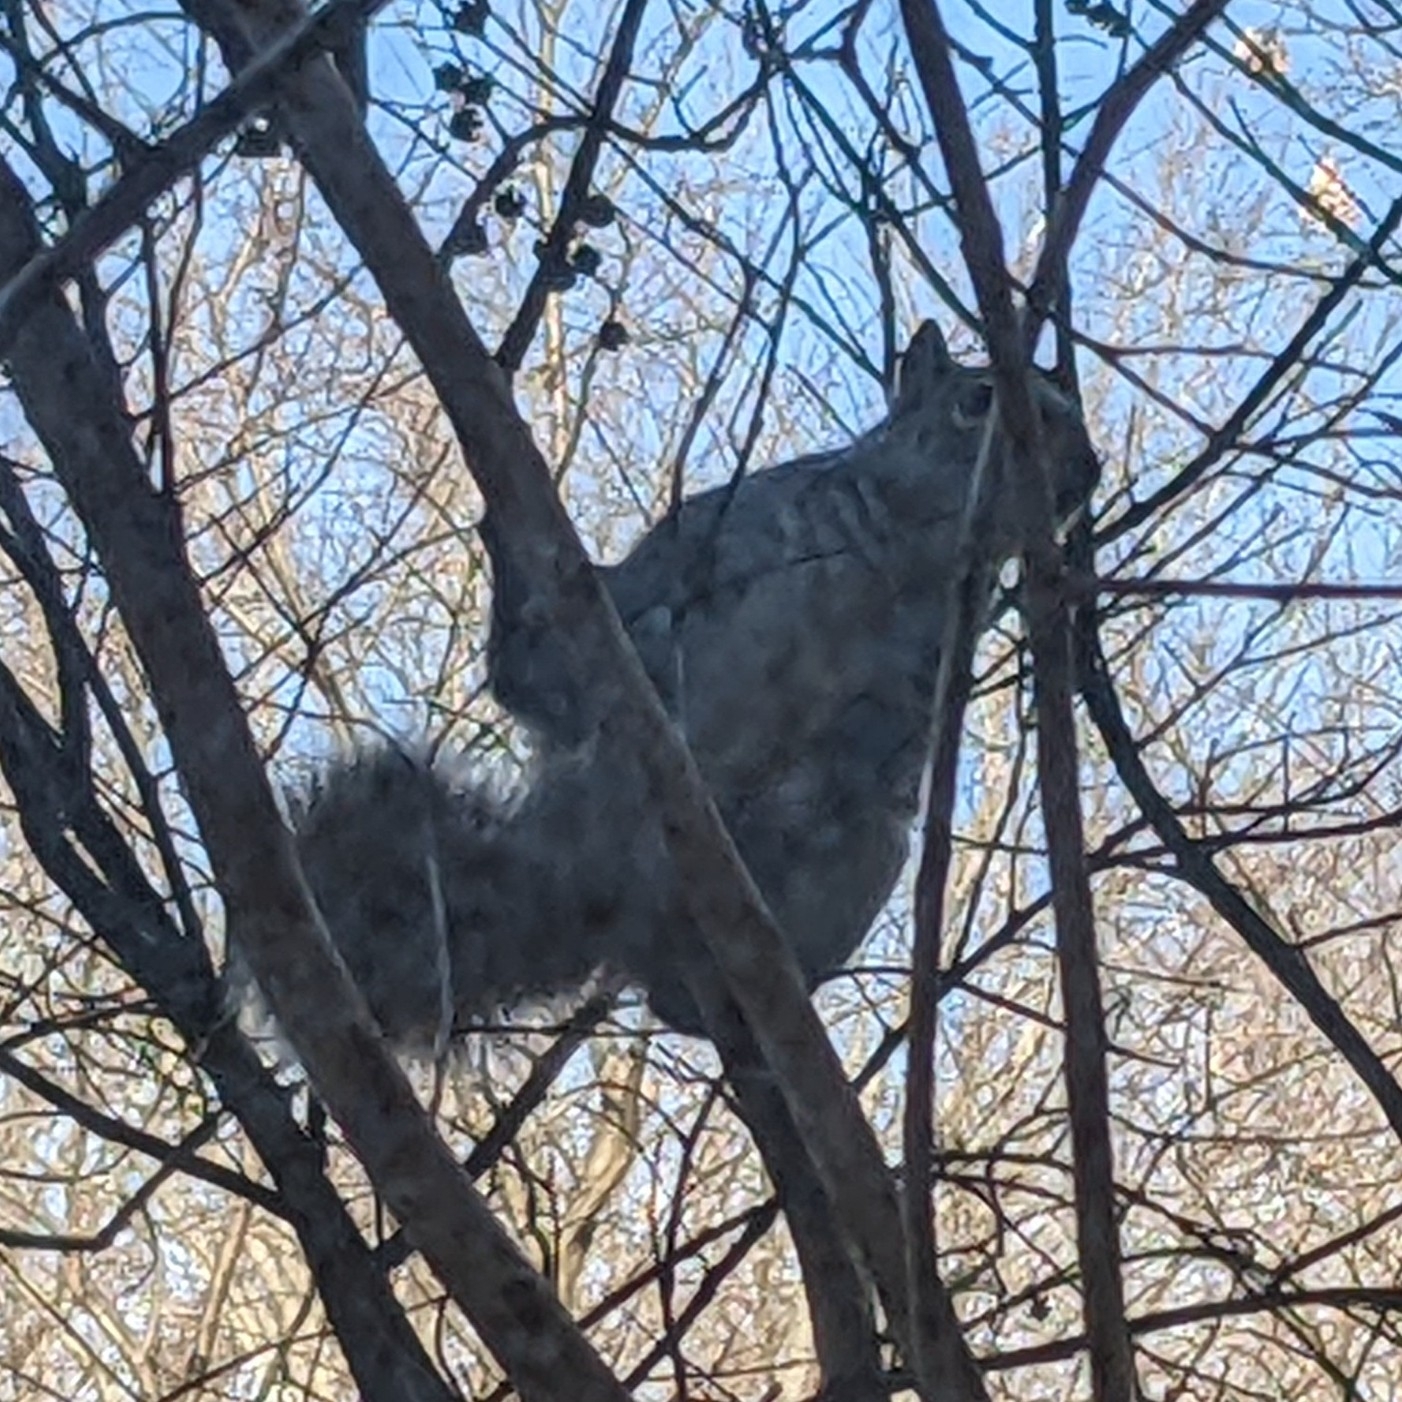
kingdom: Animalia
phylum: Chordata
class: Mammalia
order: Rodentia
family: Sciuridae
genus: Sciurus
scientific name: Sciurus carolinensis
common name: Eastern gray squirrel
